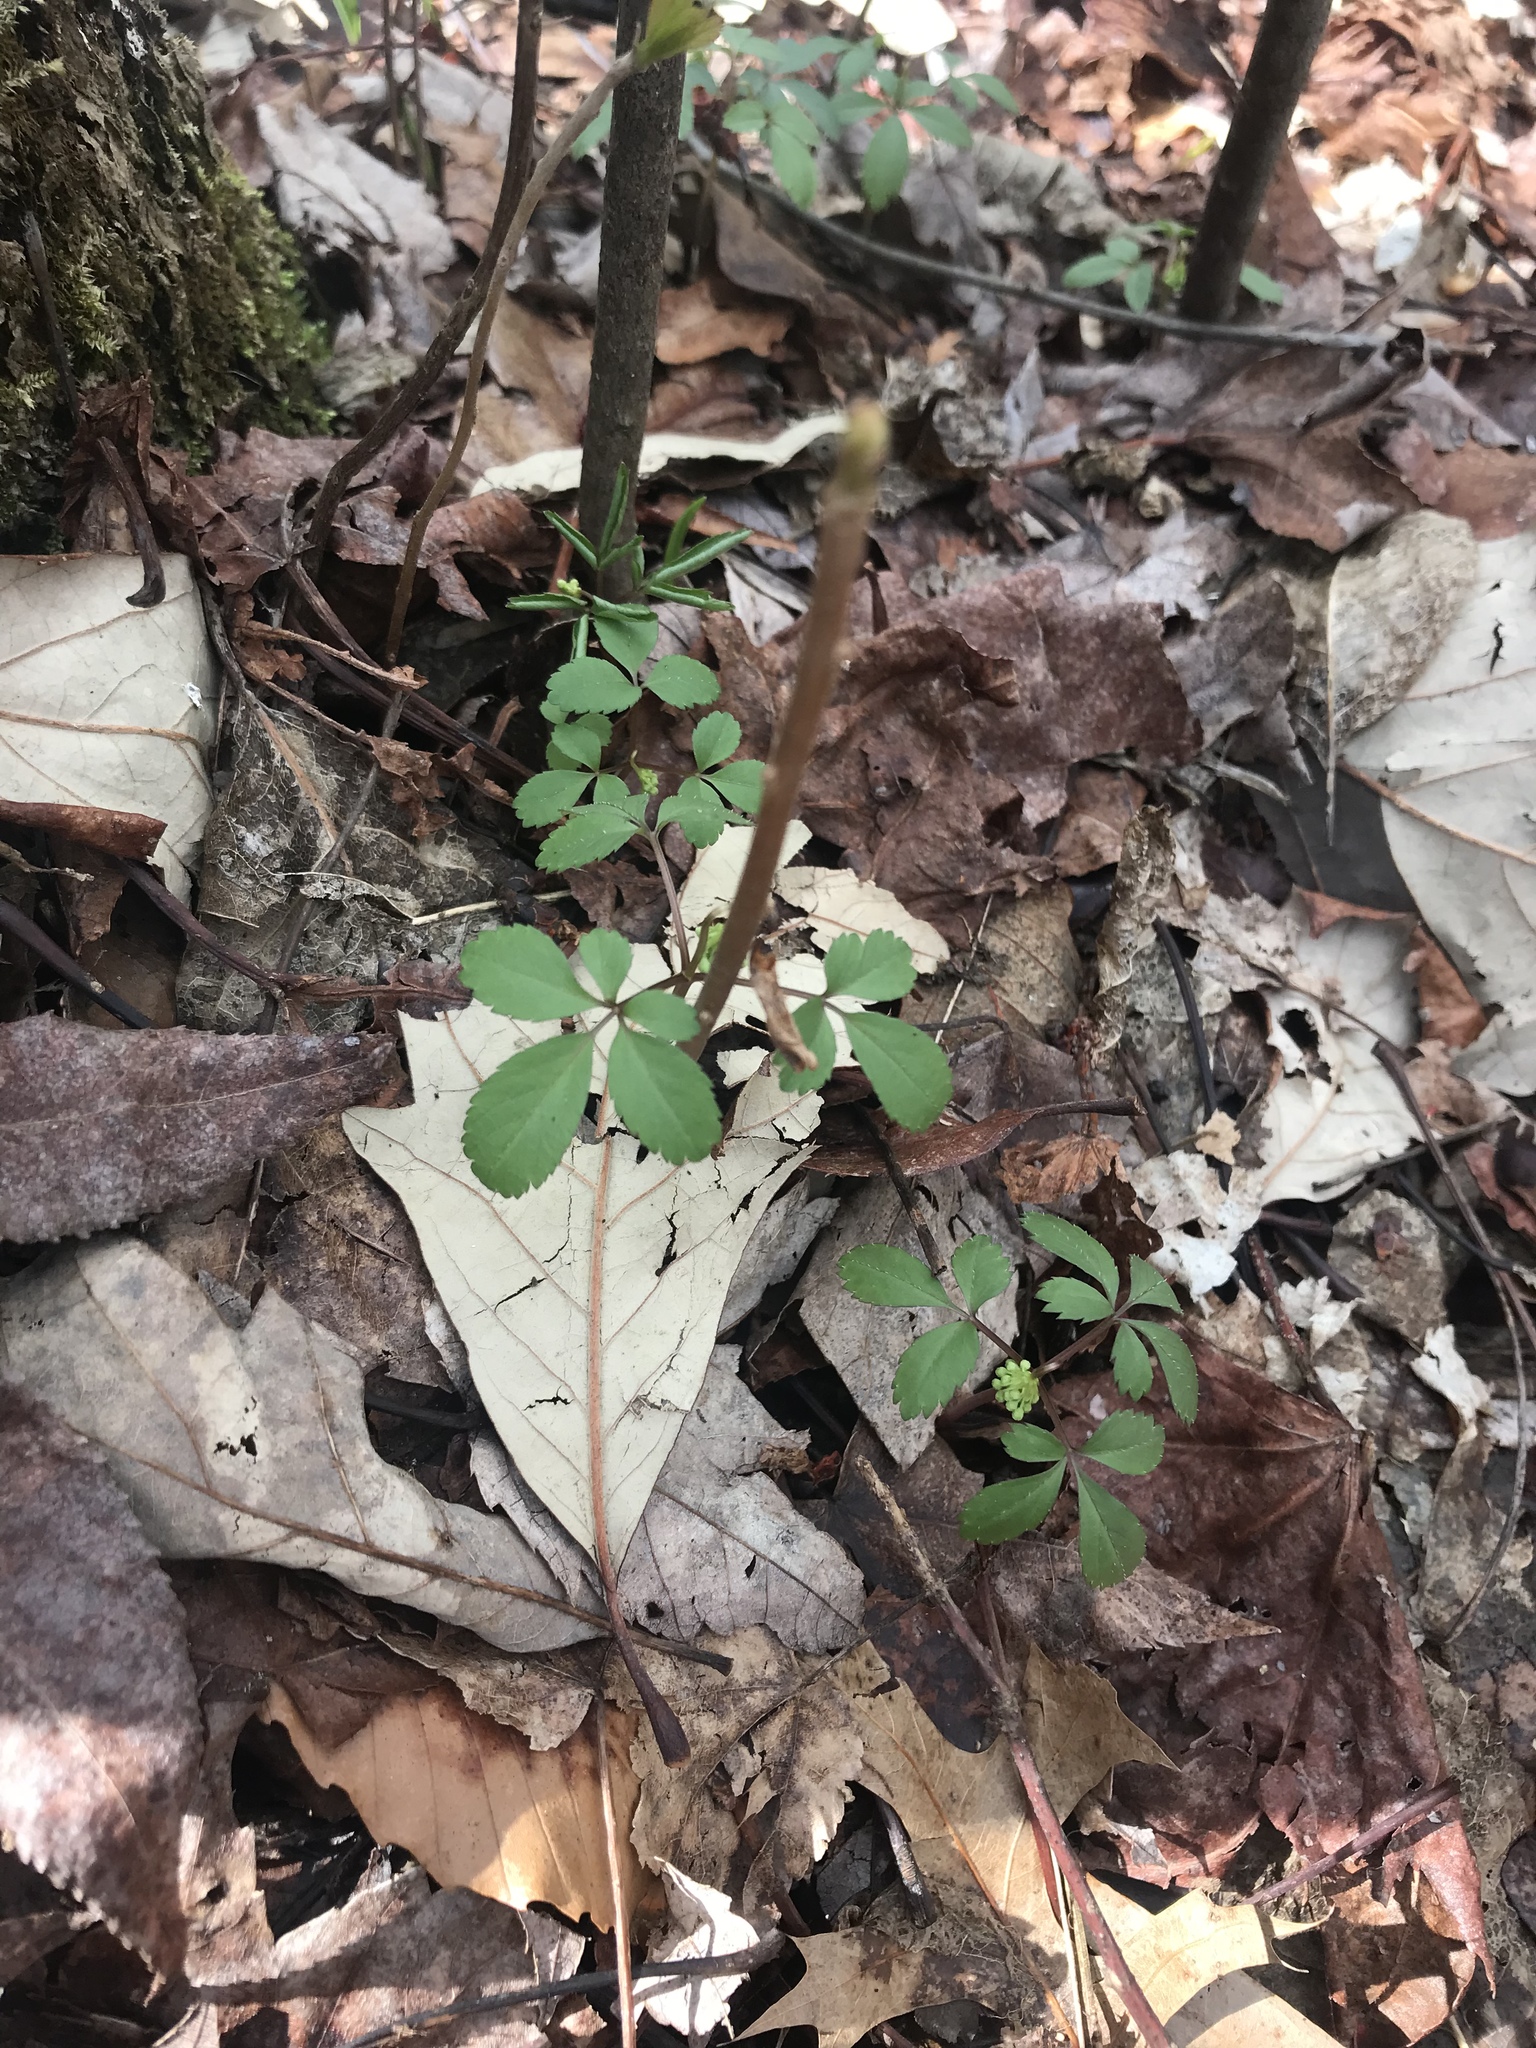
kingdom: Plantae
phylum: Tracheophyta
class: Magnoliopsida
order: Apiales
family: Araliaceae
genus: Panax
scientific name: Panax trifolius
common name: Dwarf ginseng
